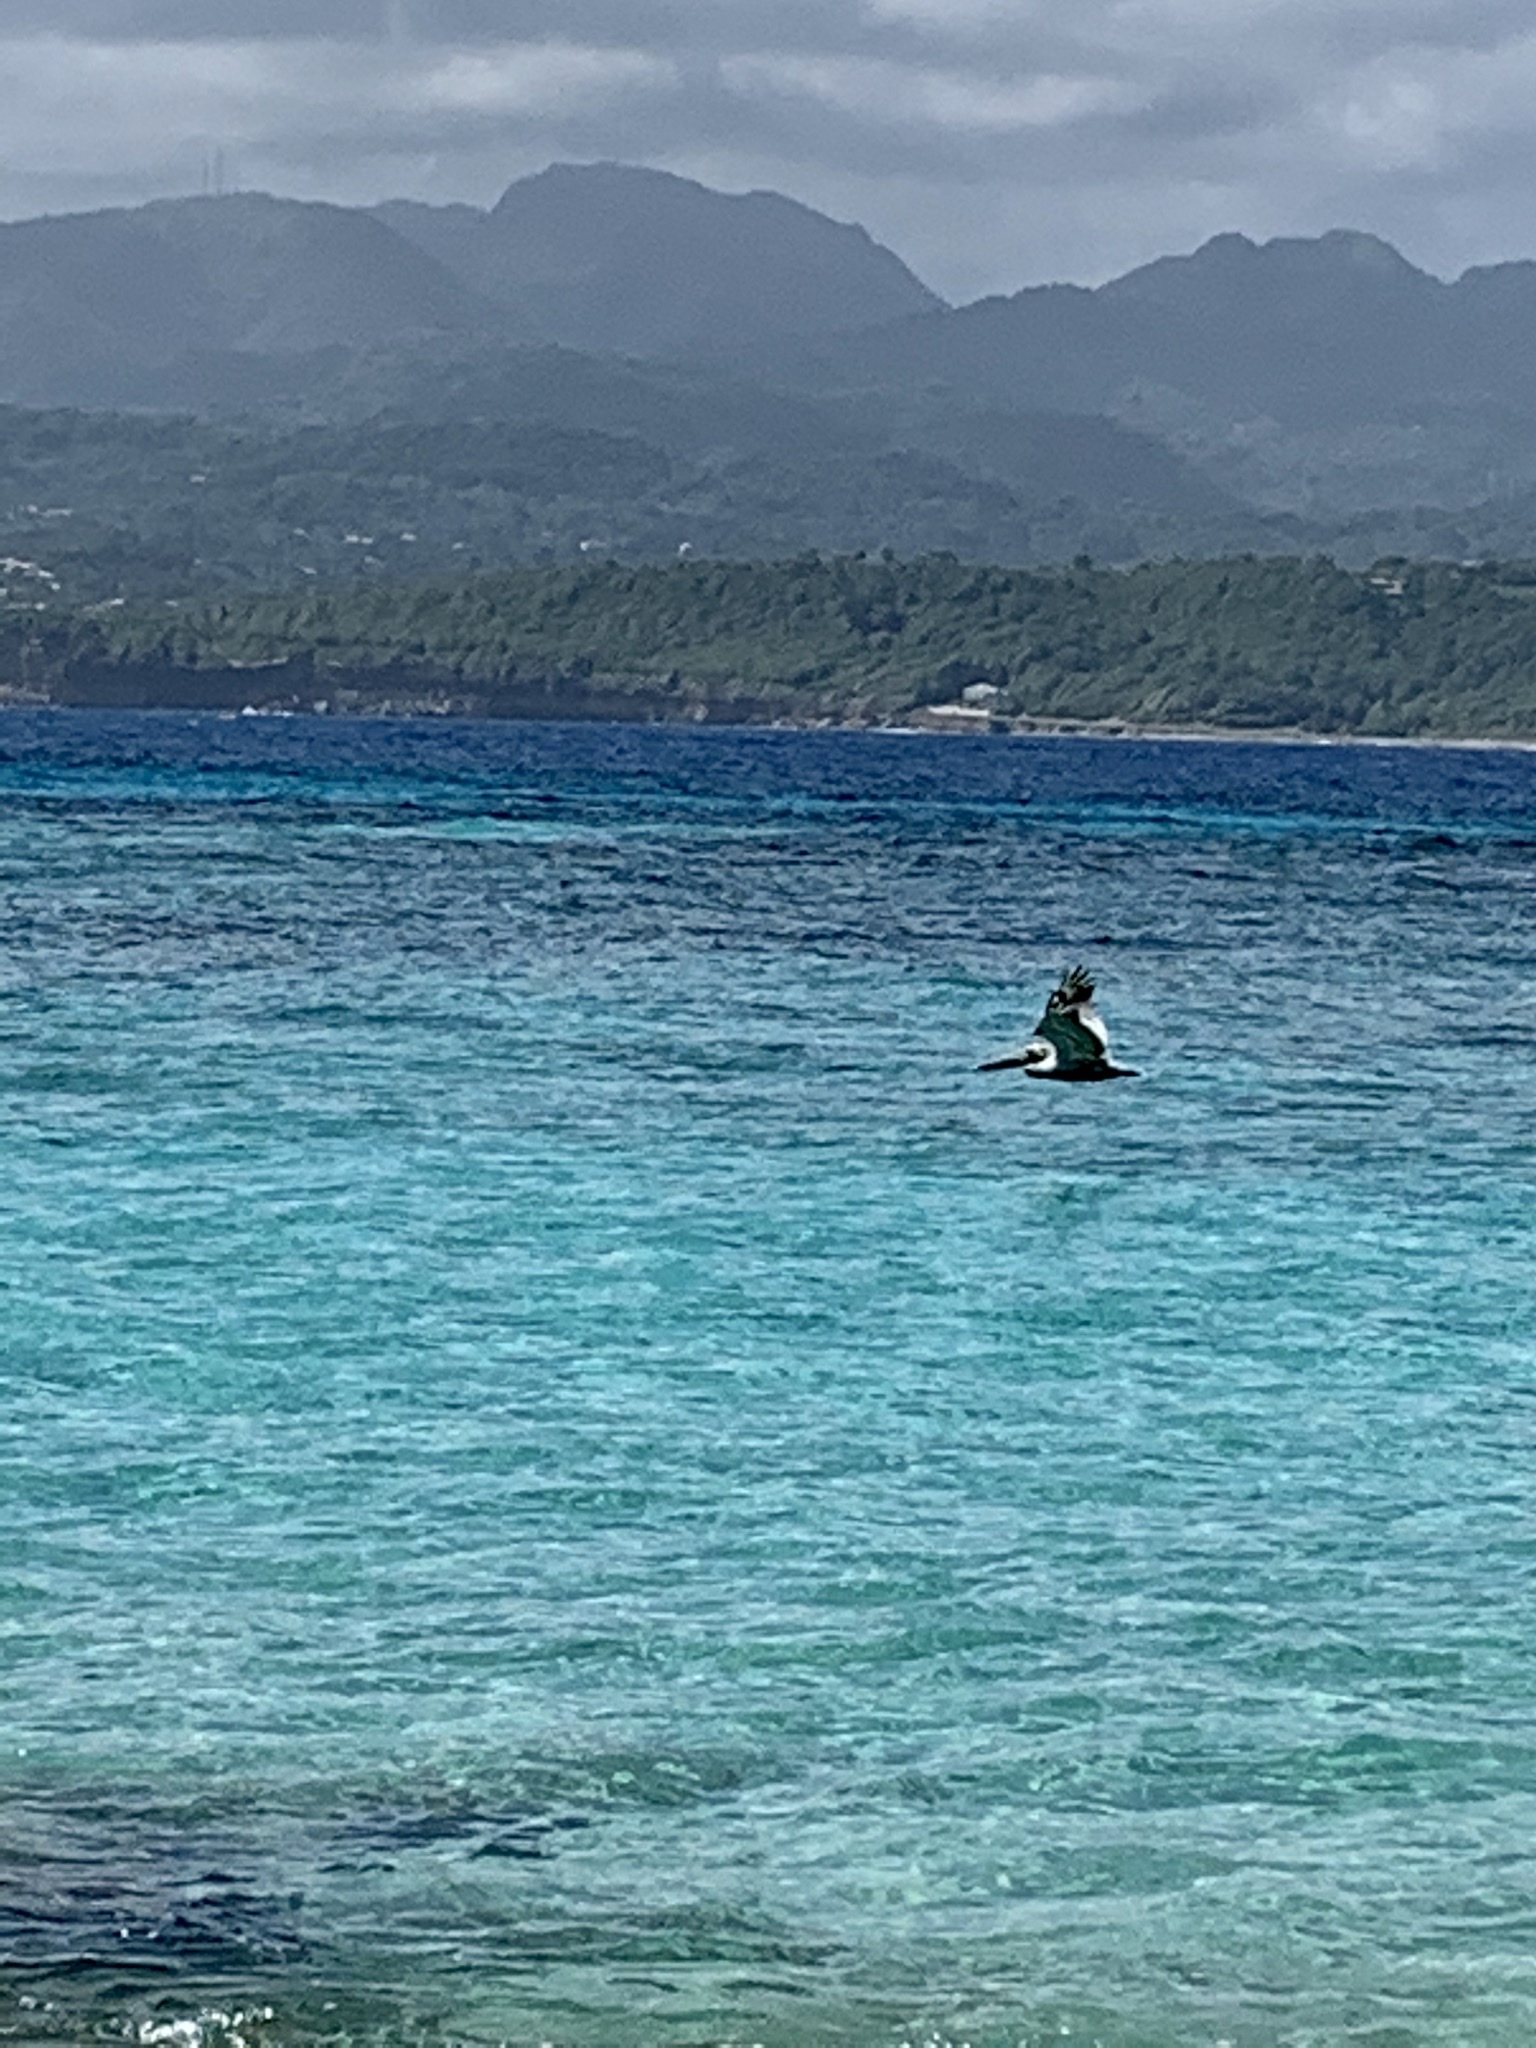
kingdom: Animalia
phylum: Chordata
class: Aves
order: Pelecaniformes
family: Pelecanidae
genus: Pelecanus
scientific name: Pelecanus occidentalis
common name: Brown pelican
